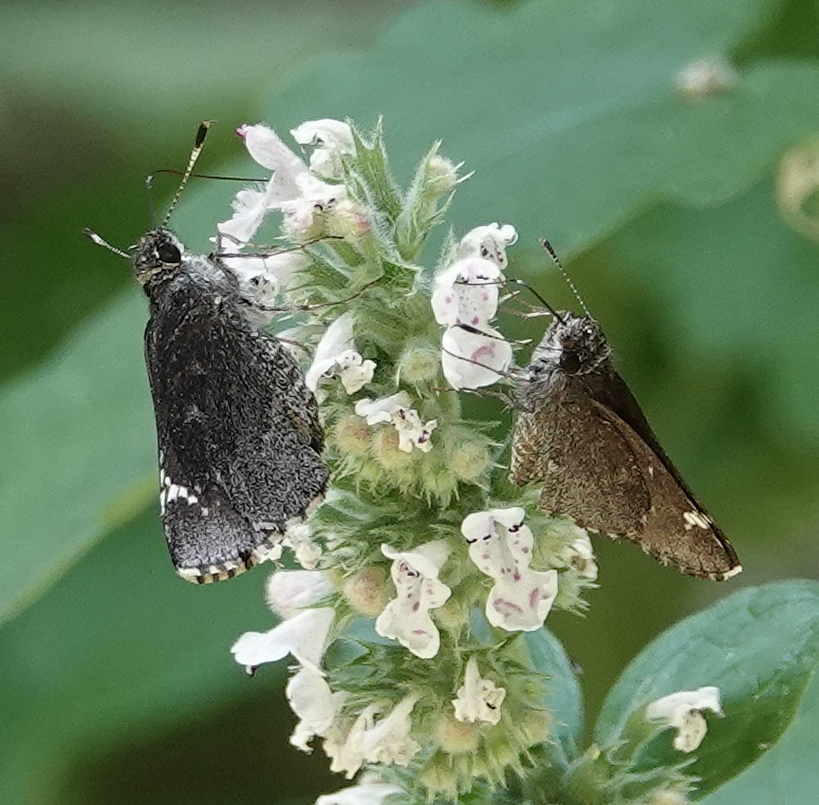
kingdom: Animalia
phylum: Arthropoda
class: Insecta
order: Lepidoptera
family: Hesperiidae
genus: Mastor
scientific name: Mastor vialis
